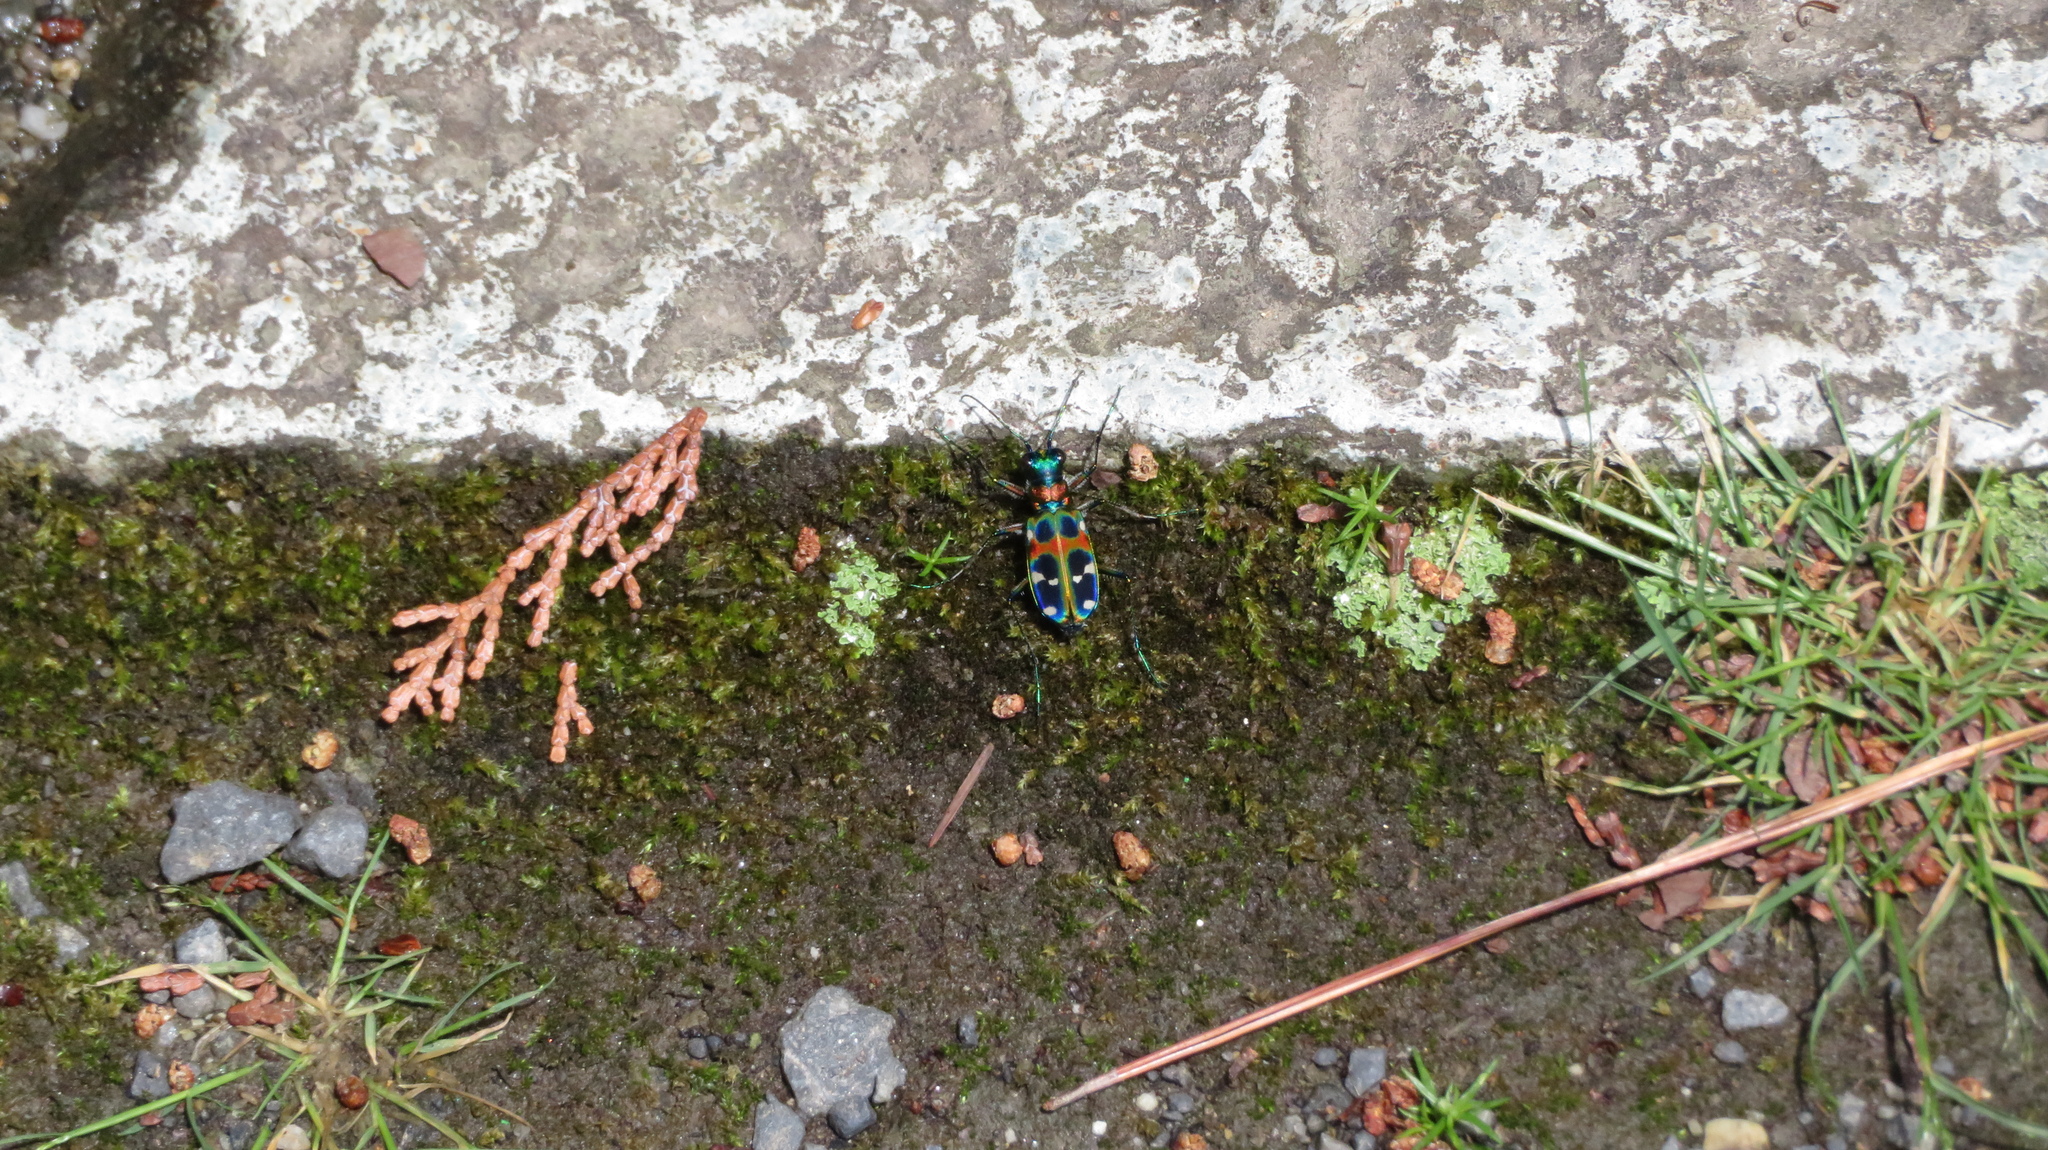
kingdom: Animalia
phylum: Arthropoda
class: Insecta
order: Coleoptera
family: Carabidae
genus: Cicindela
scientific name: Cicindela chinensis
